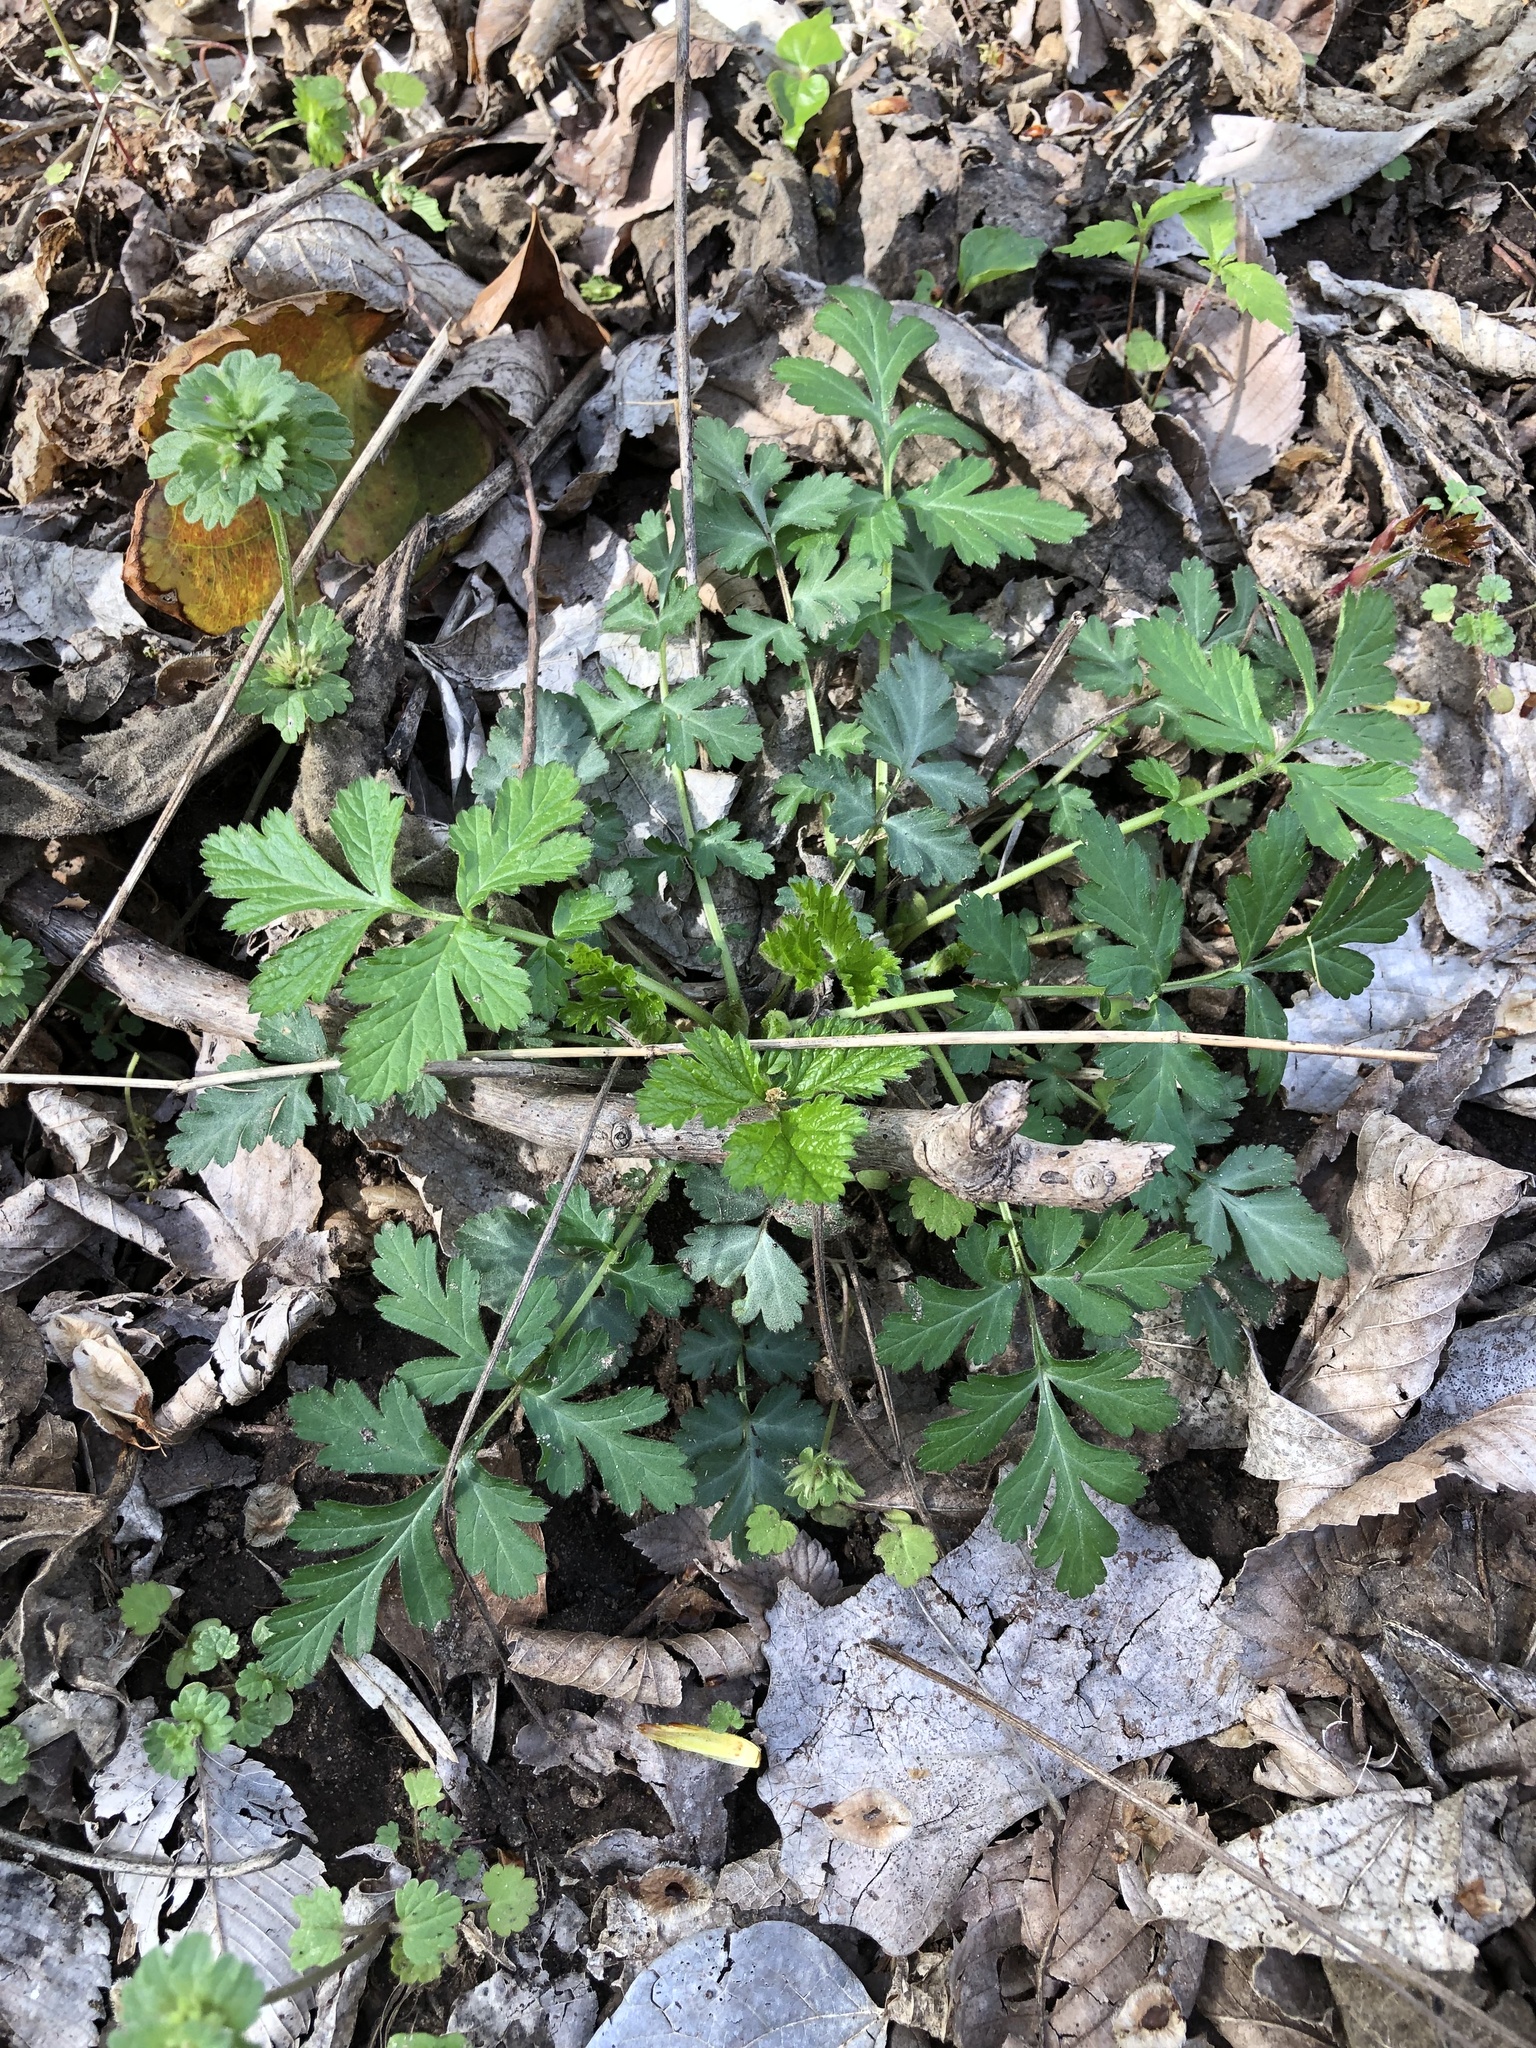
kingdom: Plantae
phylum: Tracheophyta
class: Magnoliopsida
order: Rosales
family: Rosaceae
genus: Geum
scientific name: Geum canadense
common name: White avens
